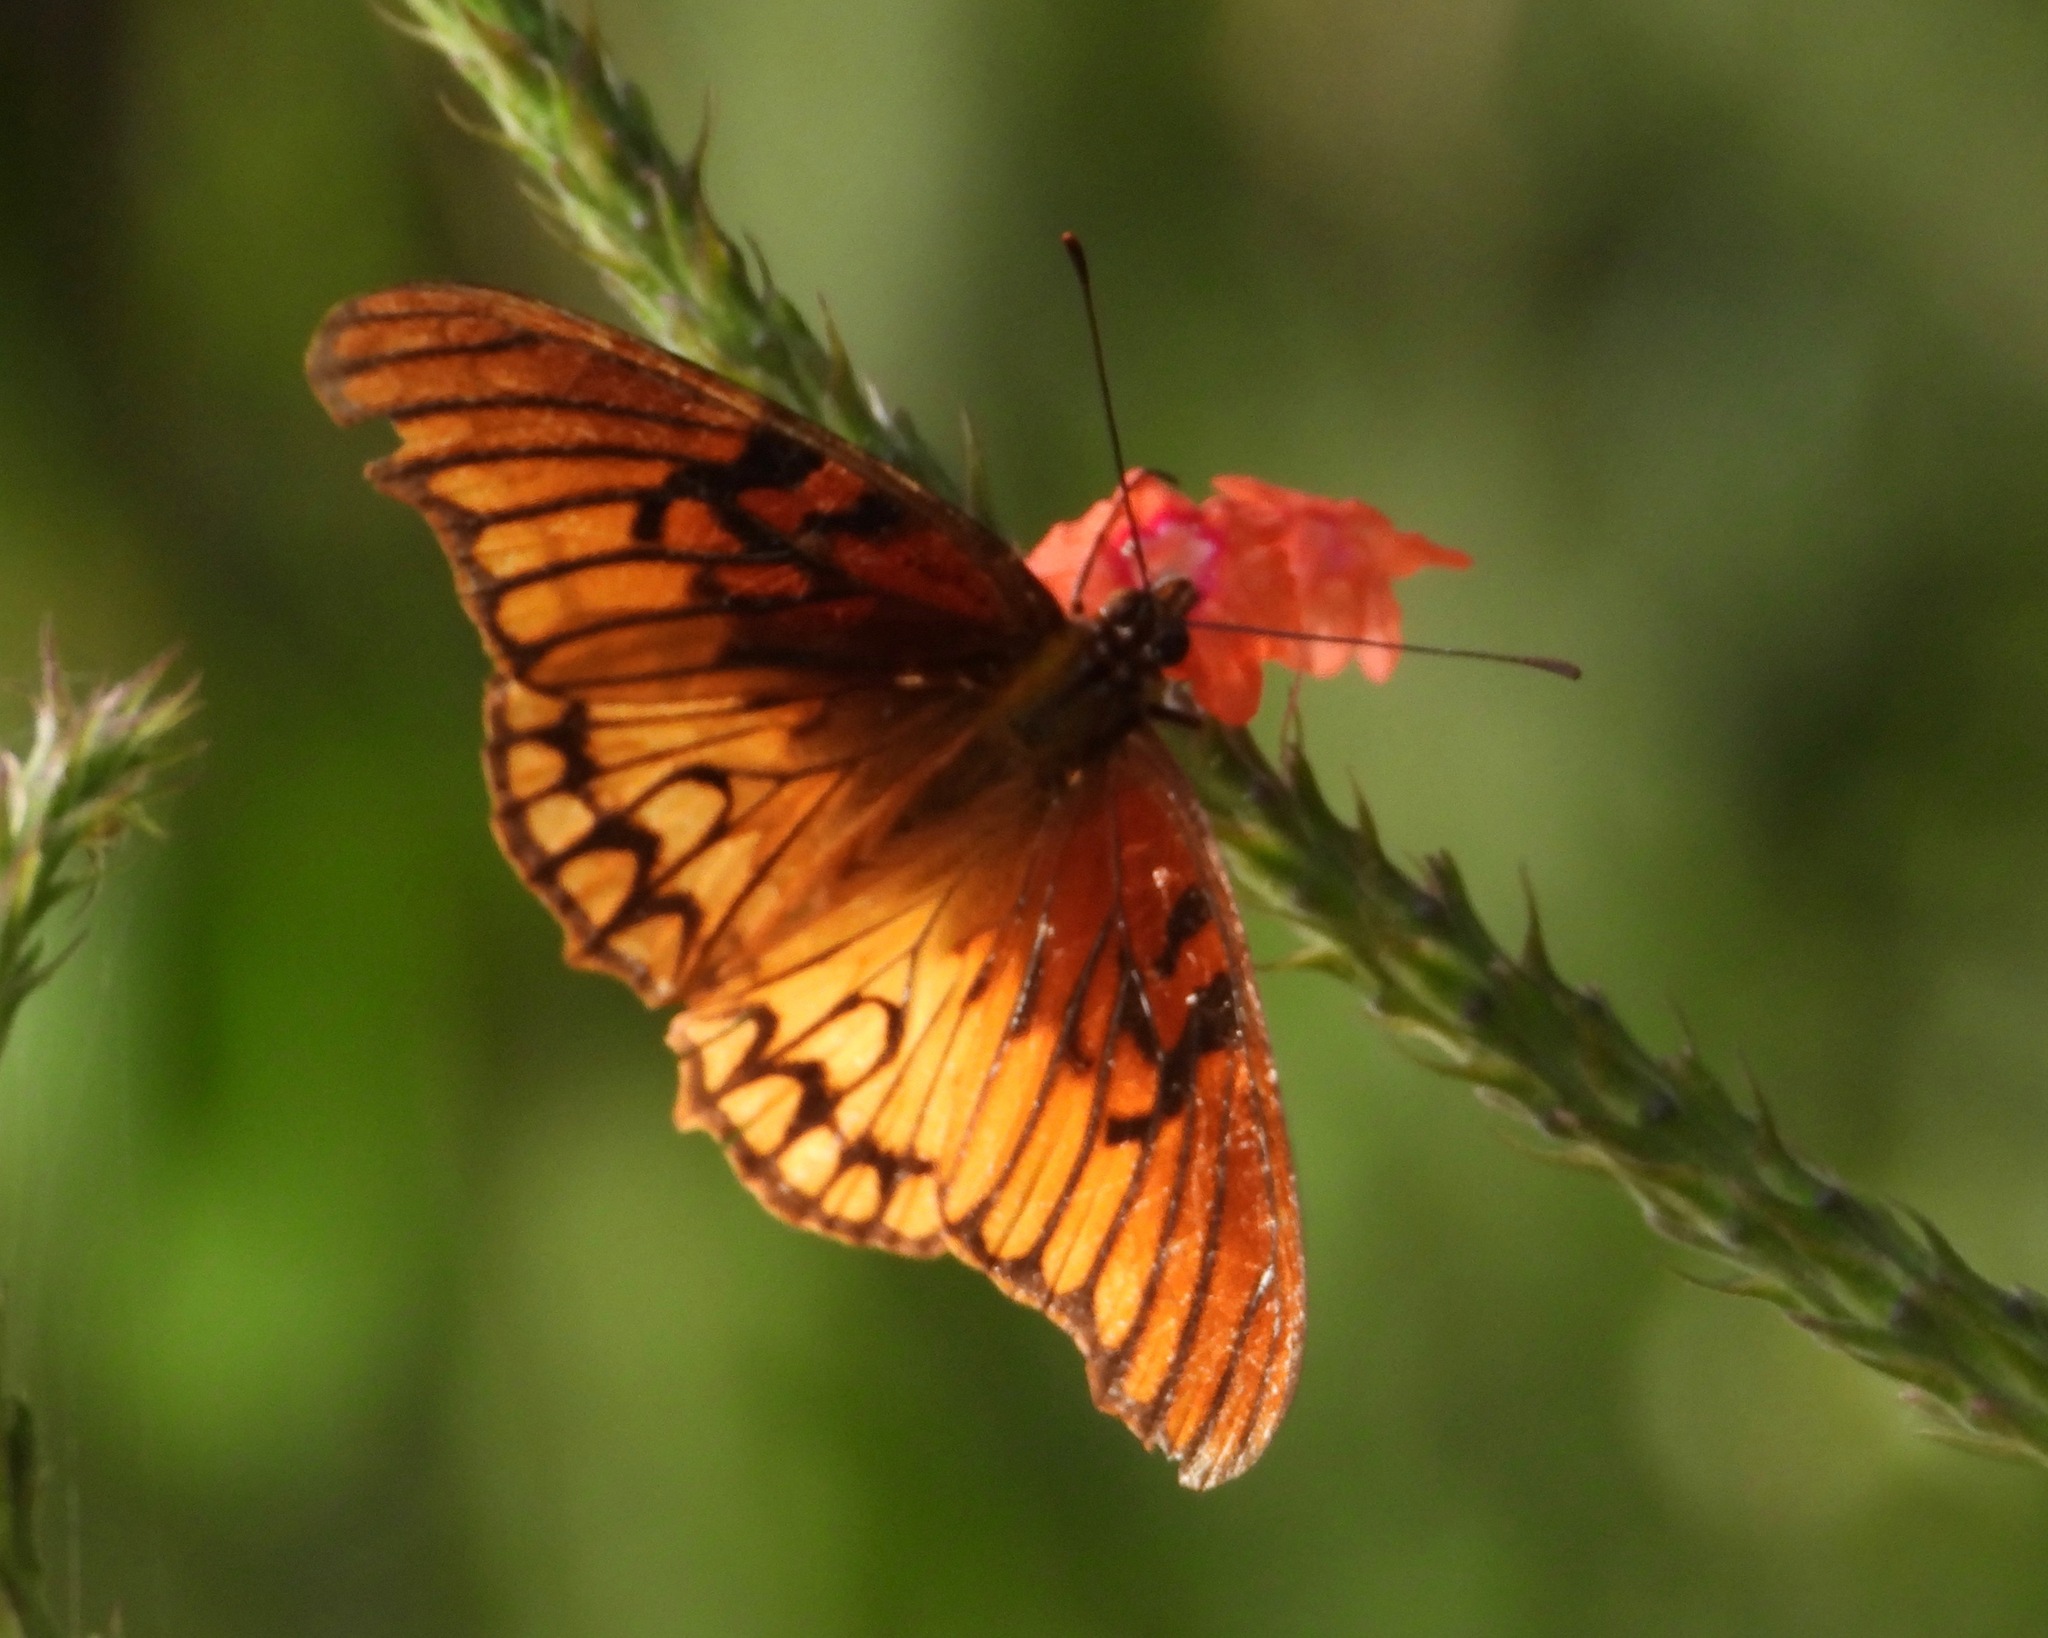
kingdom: Animalia
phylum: Arthropoda
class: Insecta
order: Lepidoptera
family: Nymphalidae
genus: Dione
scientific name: Dione moneta
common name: Mexican silverspot
